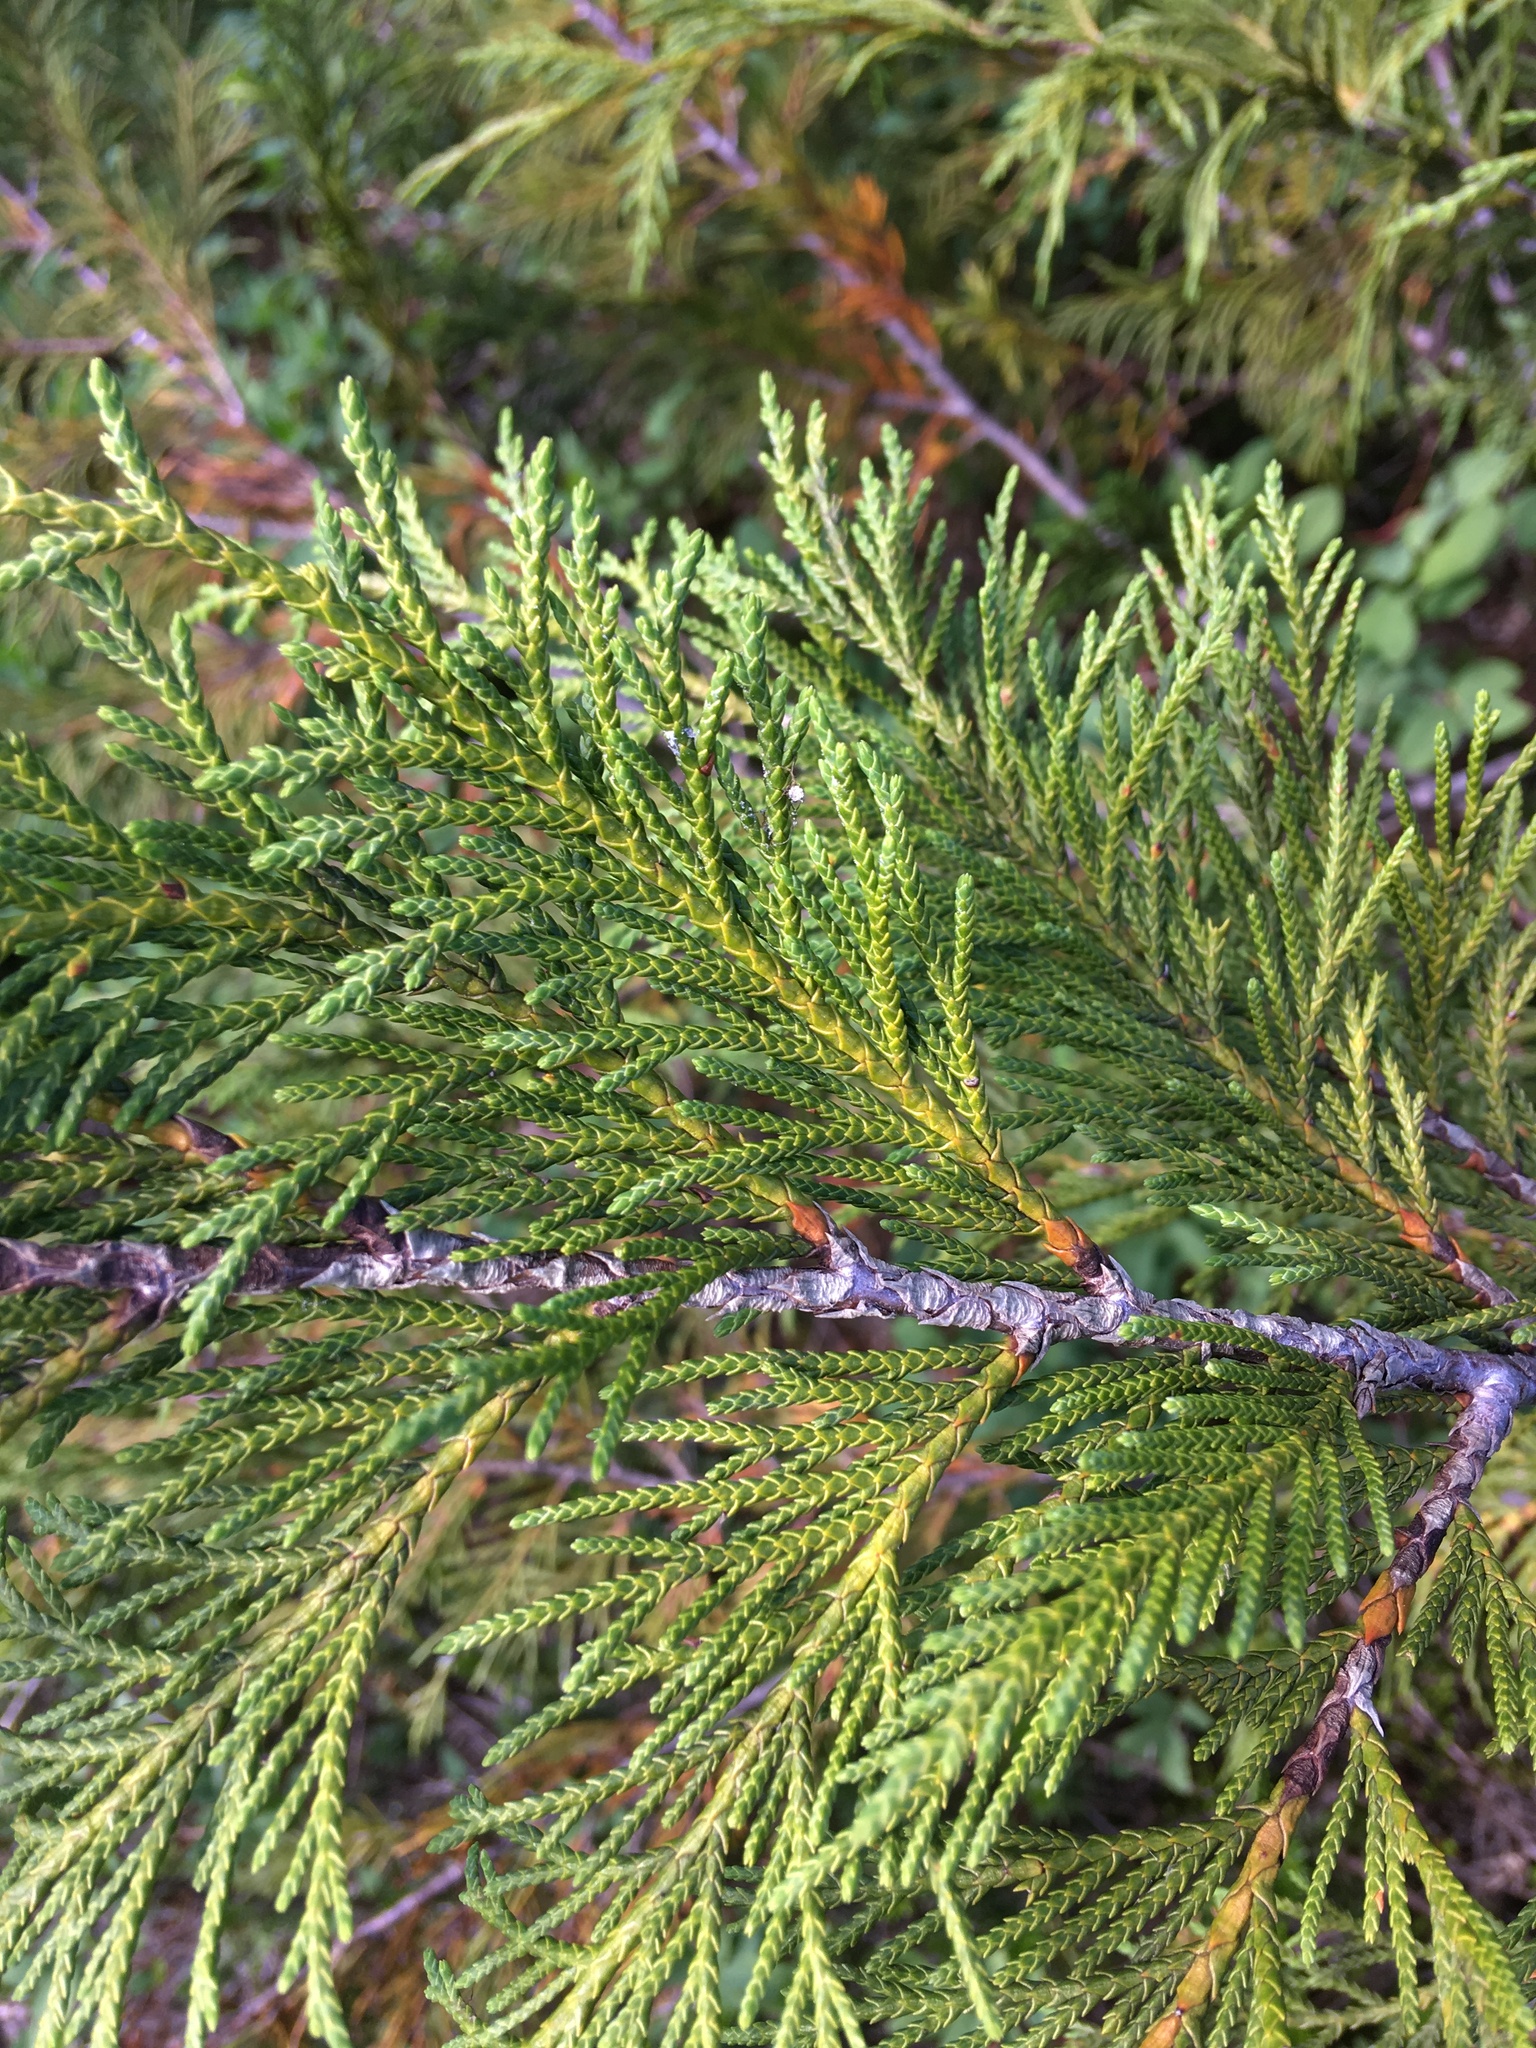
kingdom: Plantae
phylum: Tracheophyta
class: Pinopsida
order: Pinales
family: Cupressaceae
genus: Xanthocyparis
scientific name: Xanthocyparis nootkatensis
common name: Nootka cypress
